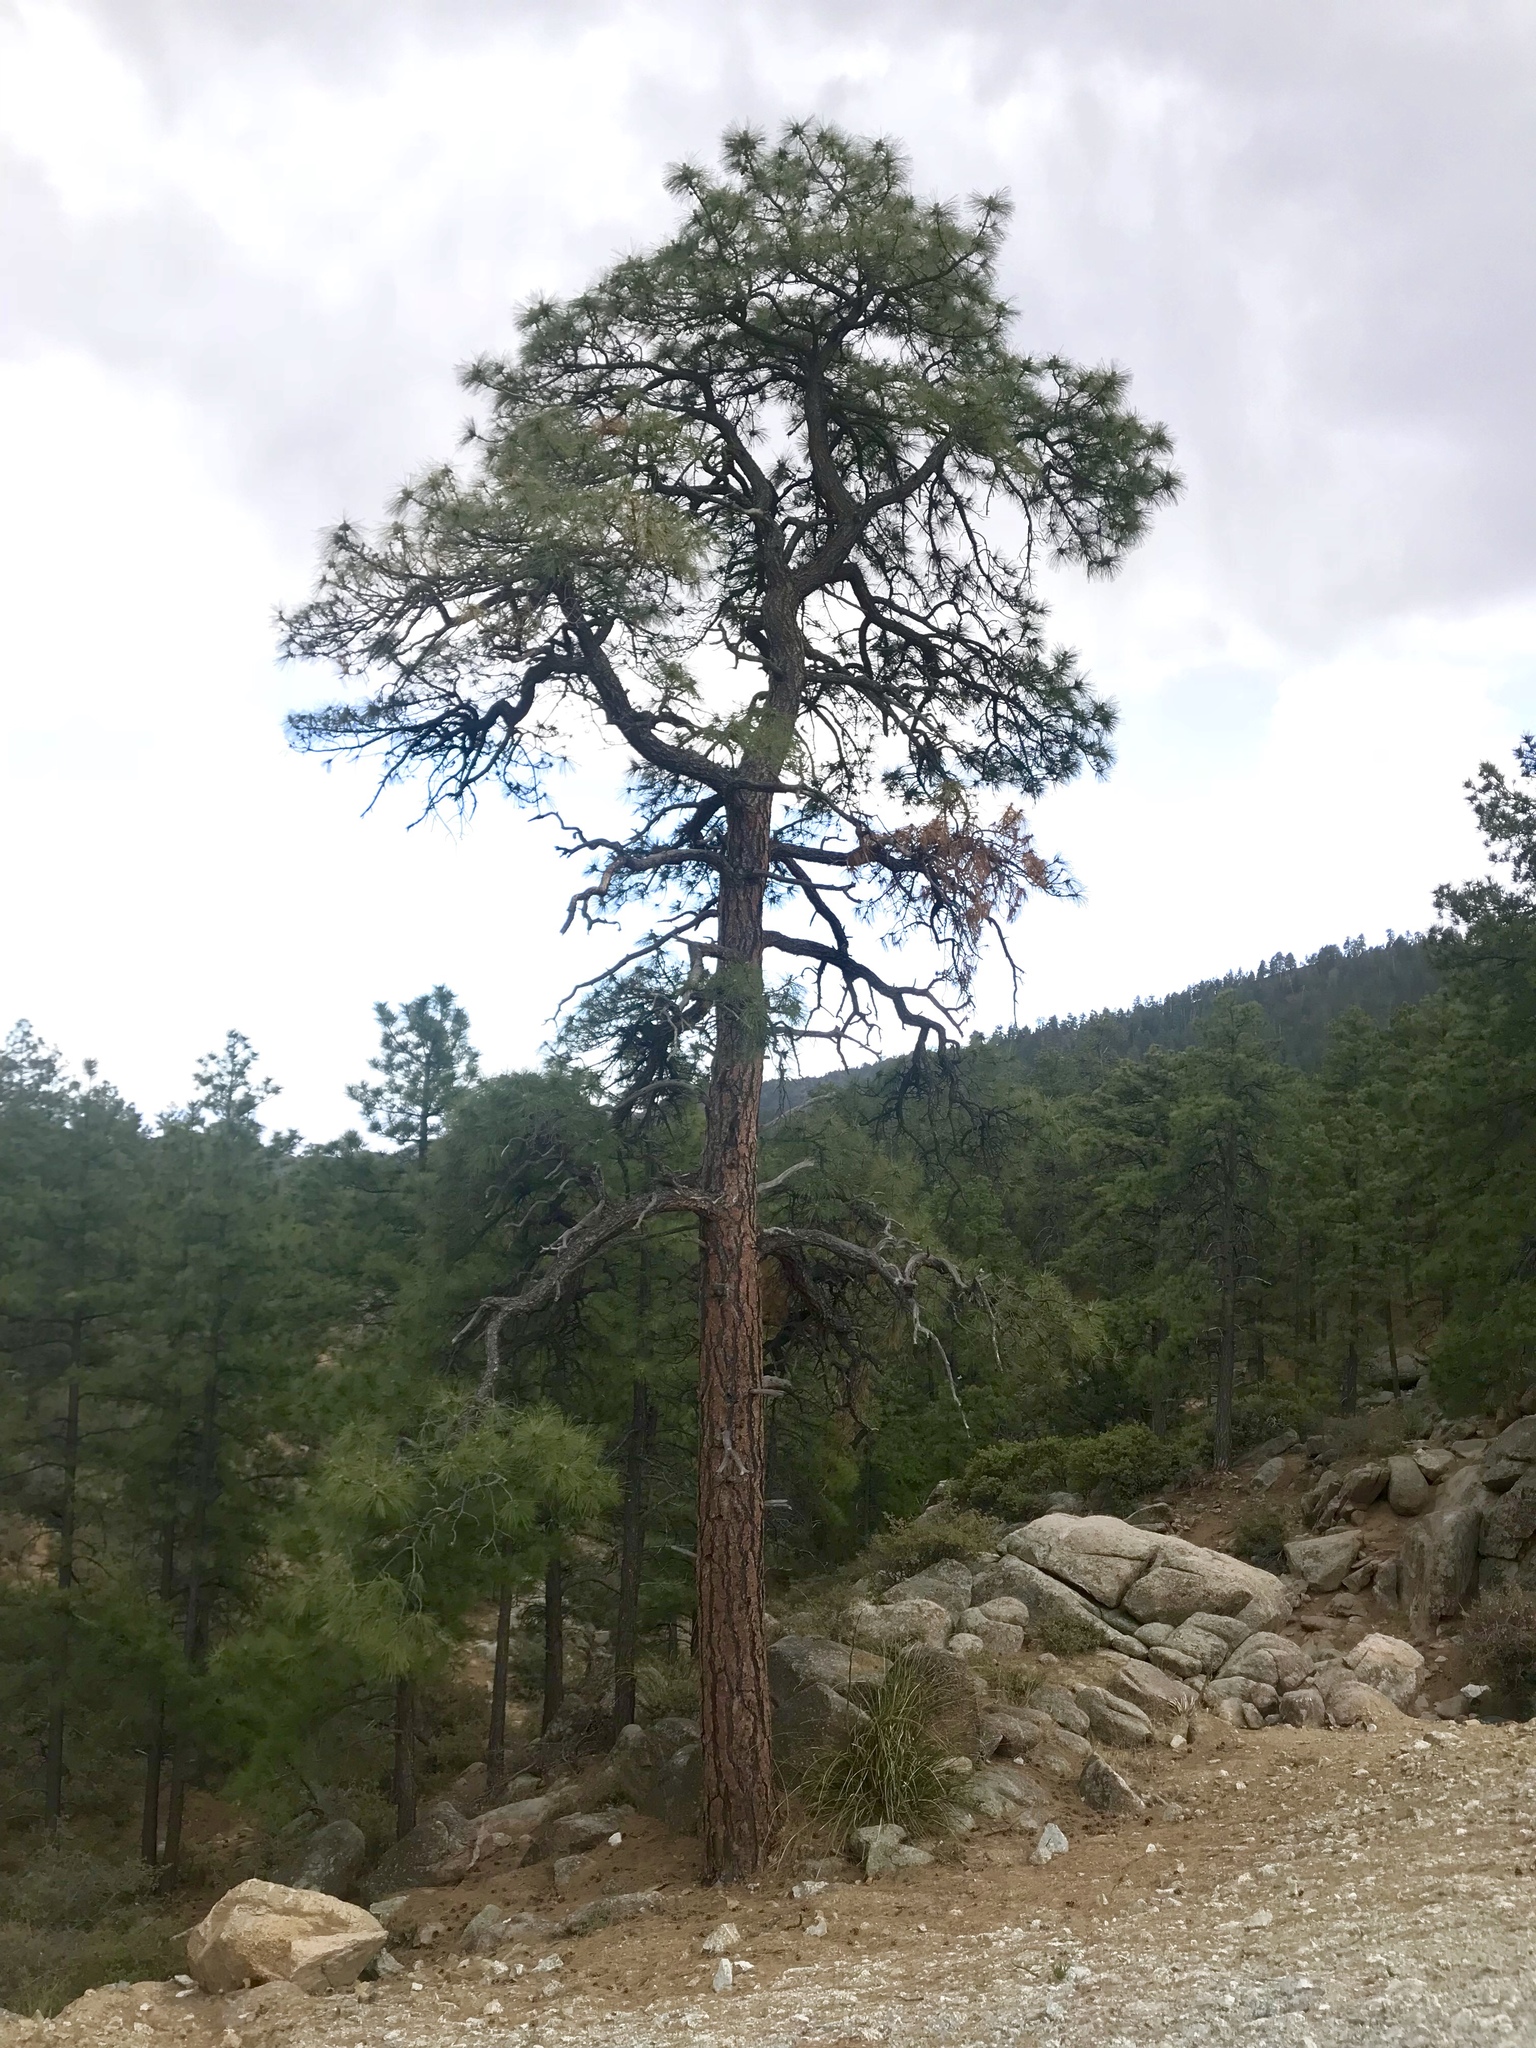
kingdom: Plantae
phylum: Tracheophyta
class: Pinopsida
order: Pinales
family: Pinaceae
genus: Pinus
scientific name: Pinus ponderosa
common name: Western yellow-pine
